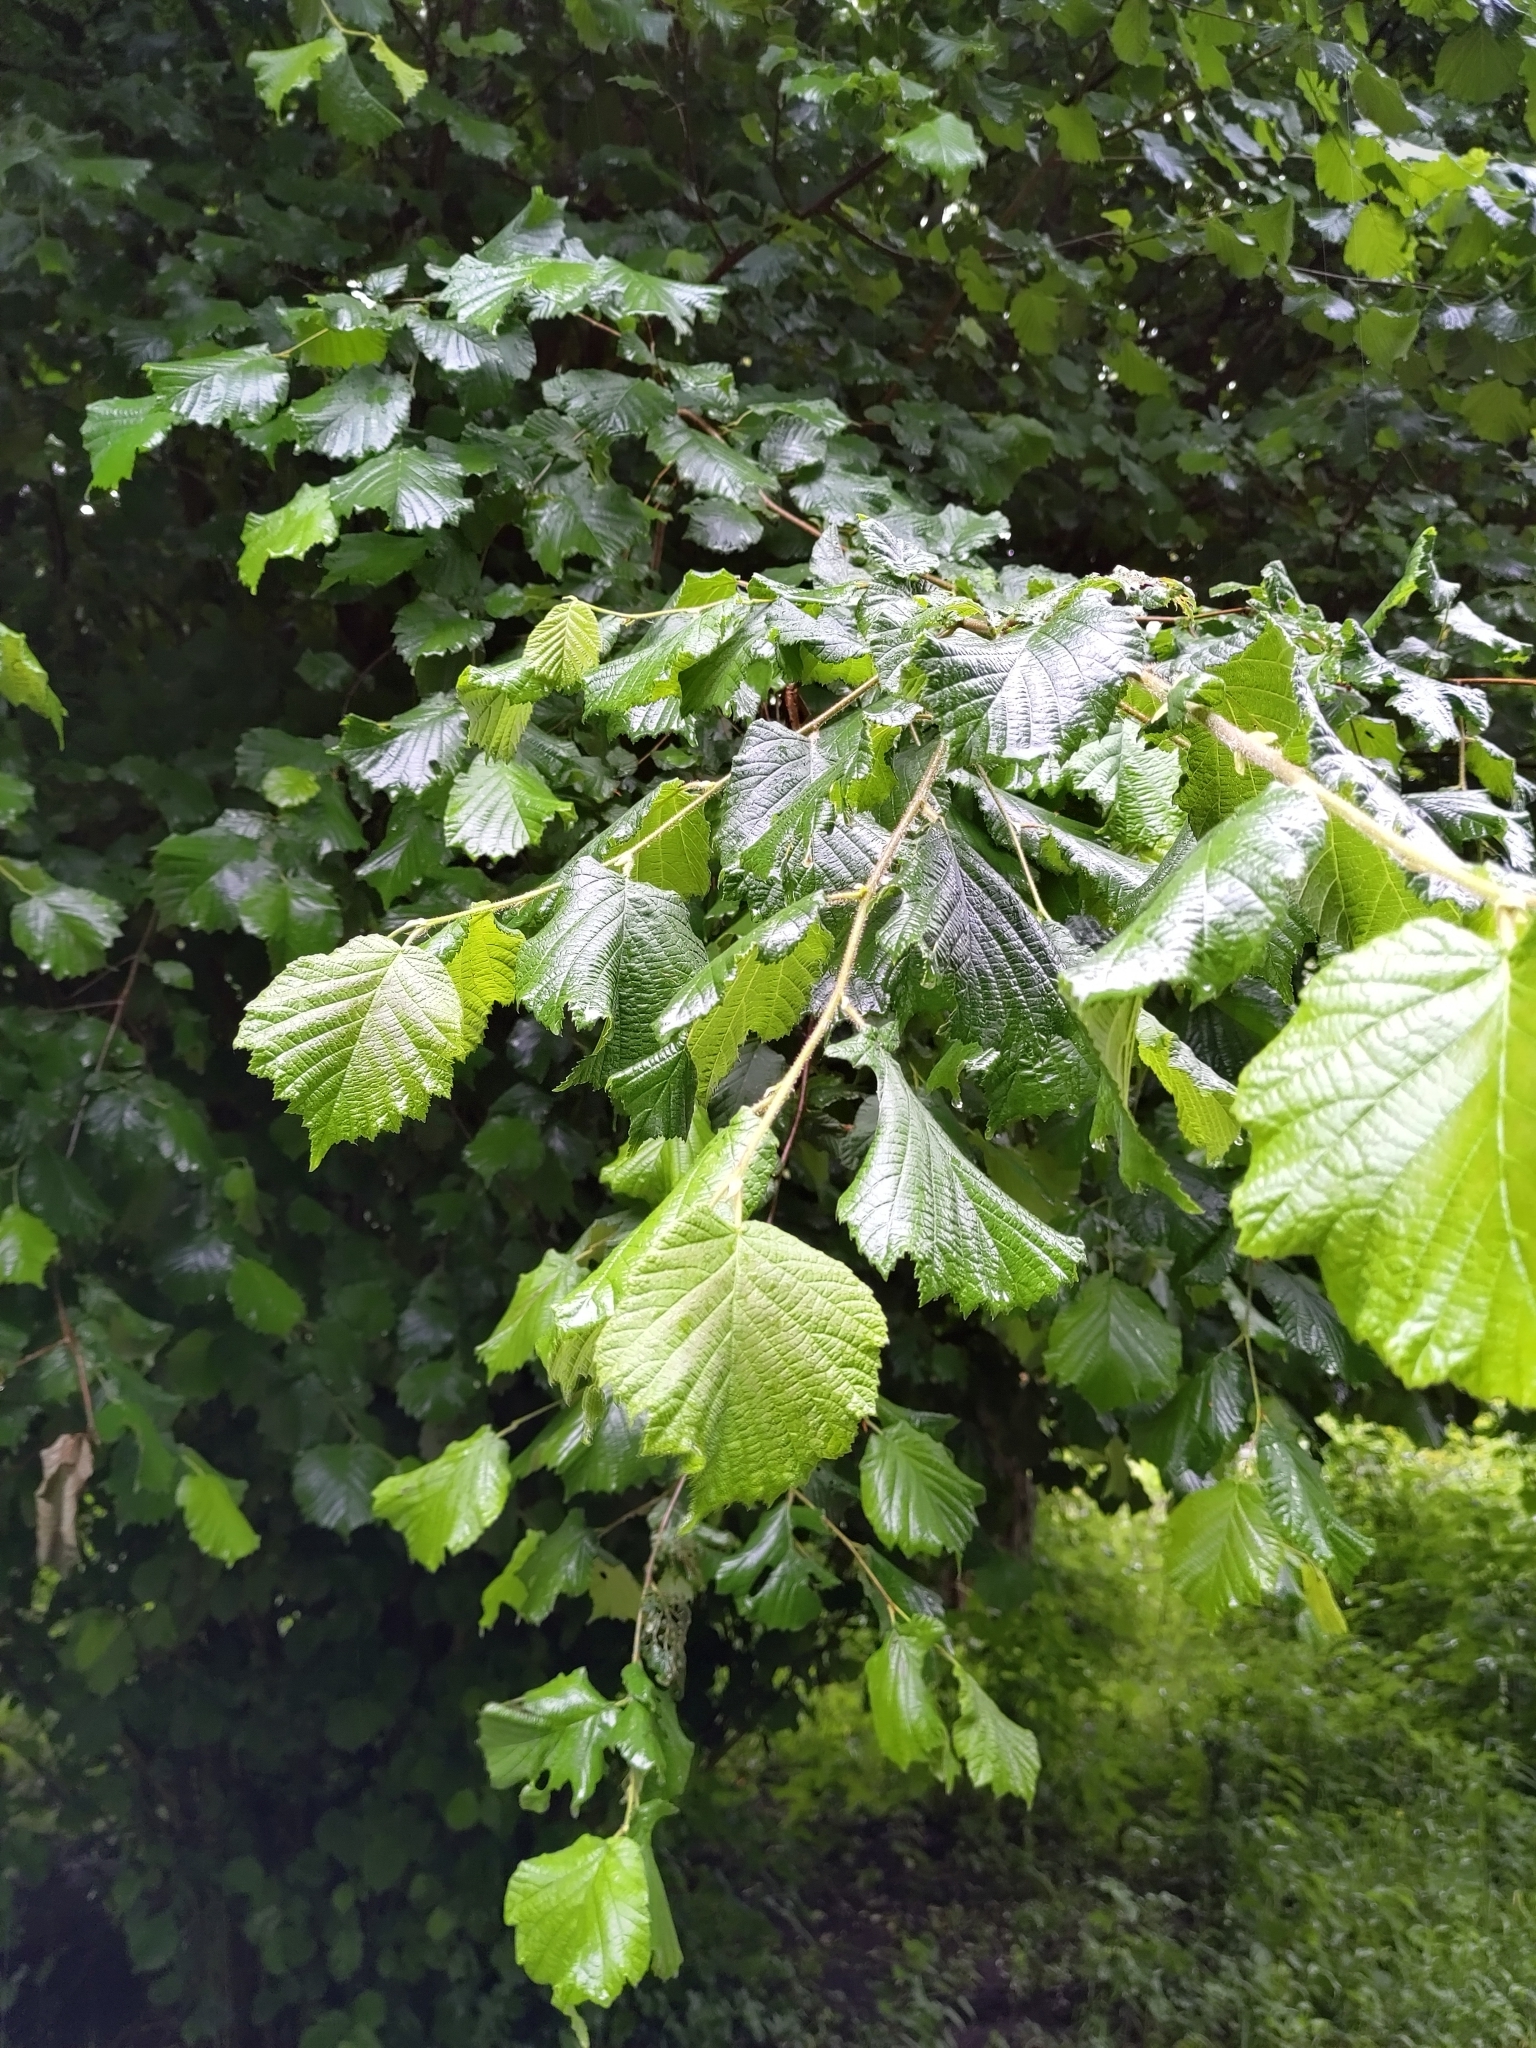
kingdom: Plantae
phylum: Tracheophyta
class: Magnoliopsida
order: Fagales
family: Betulaceae
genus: Corylus
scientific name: Corylus avellana
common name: European hazel
